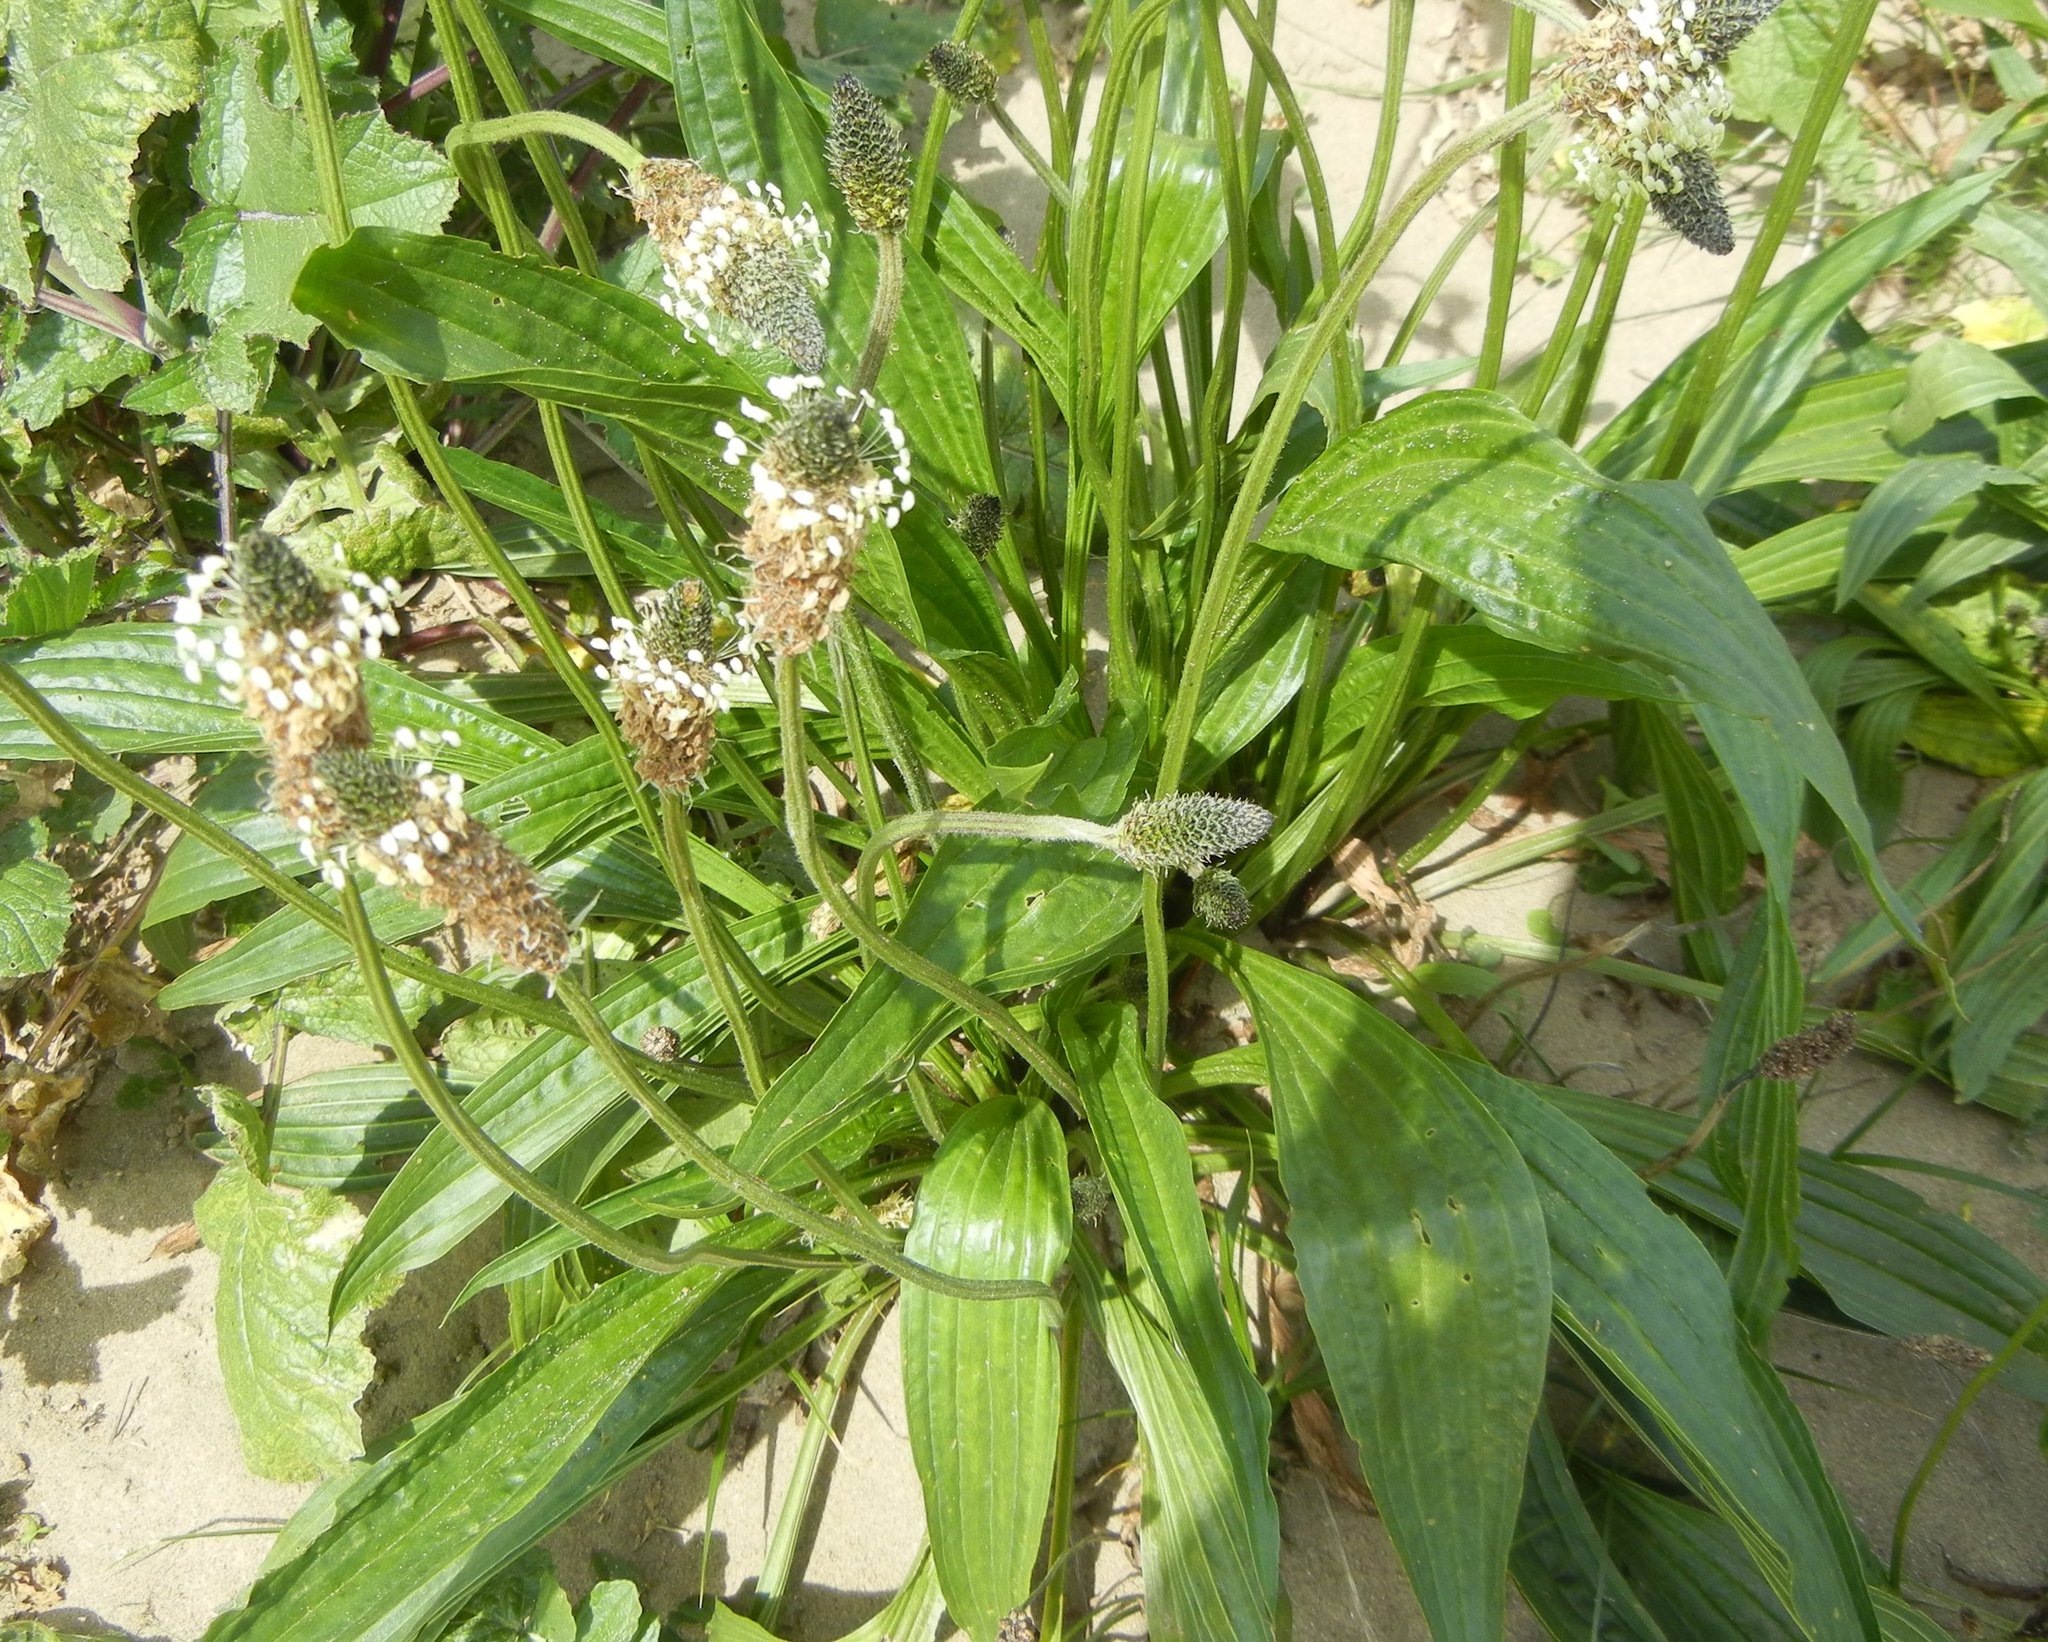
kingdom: Plantae
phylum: Tracheophyta
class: Magnoliopsida
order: Lamiales
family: Plantaginaceae
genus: Plantago
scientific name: Plantago lanceolata
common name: Ribwort plantain
